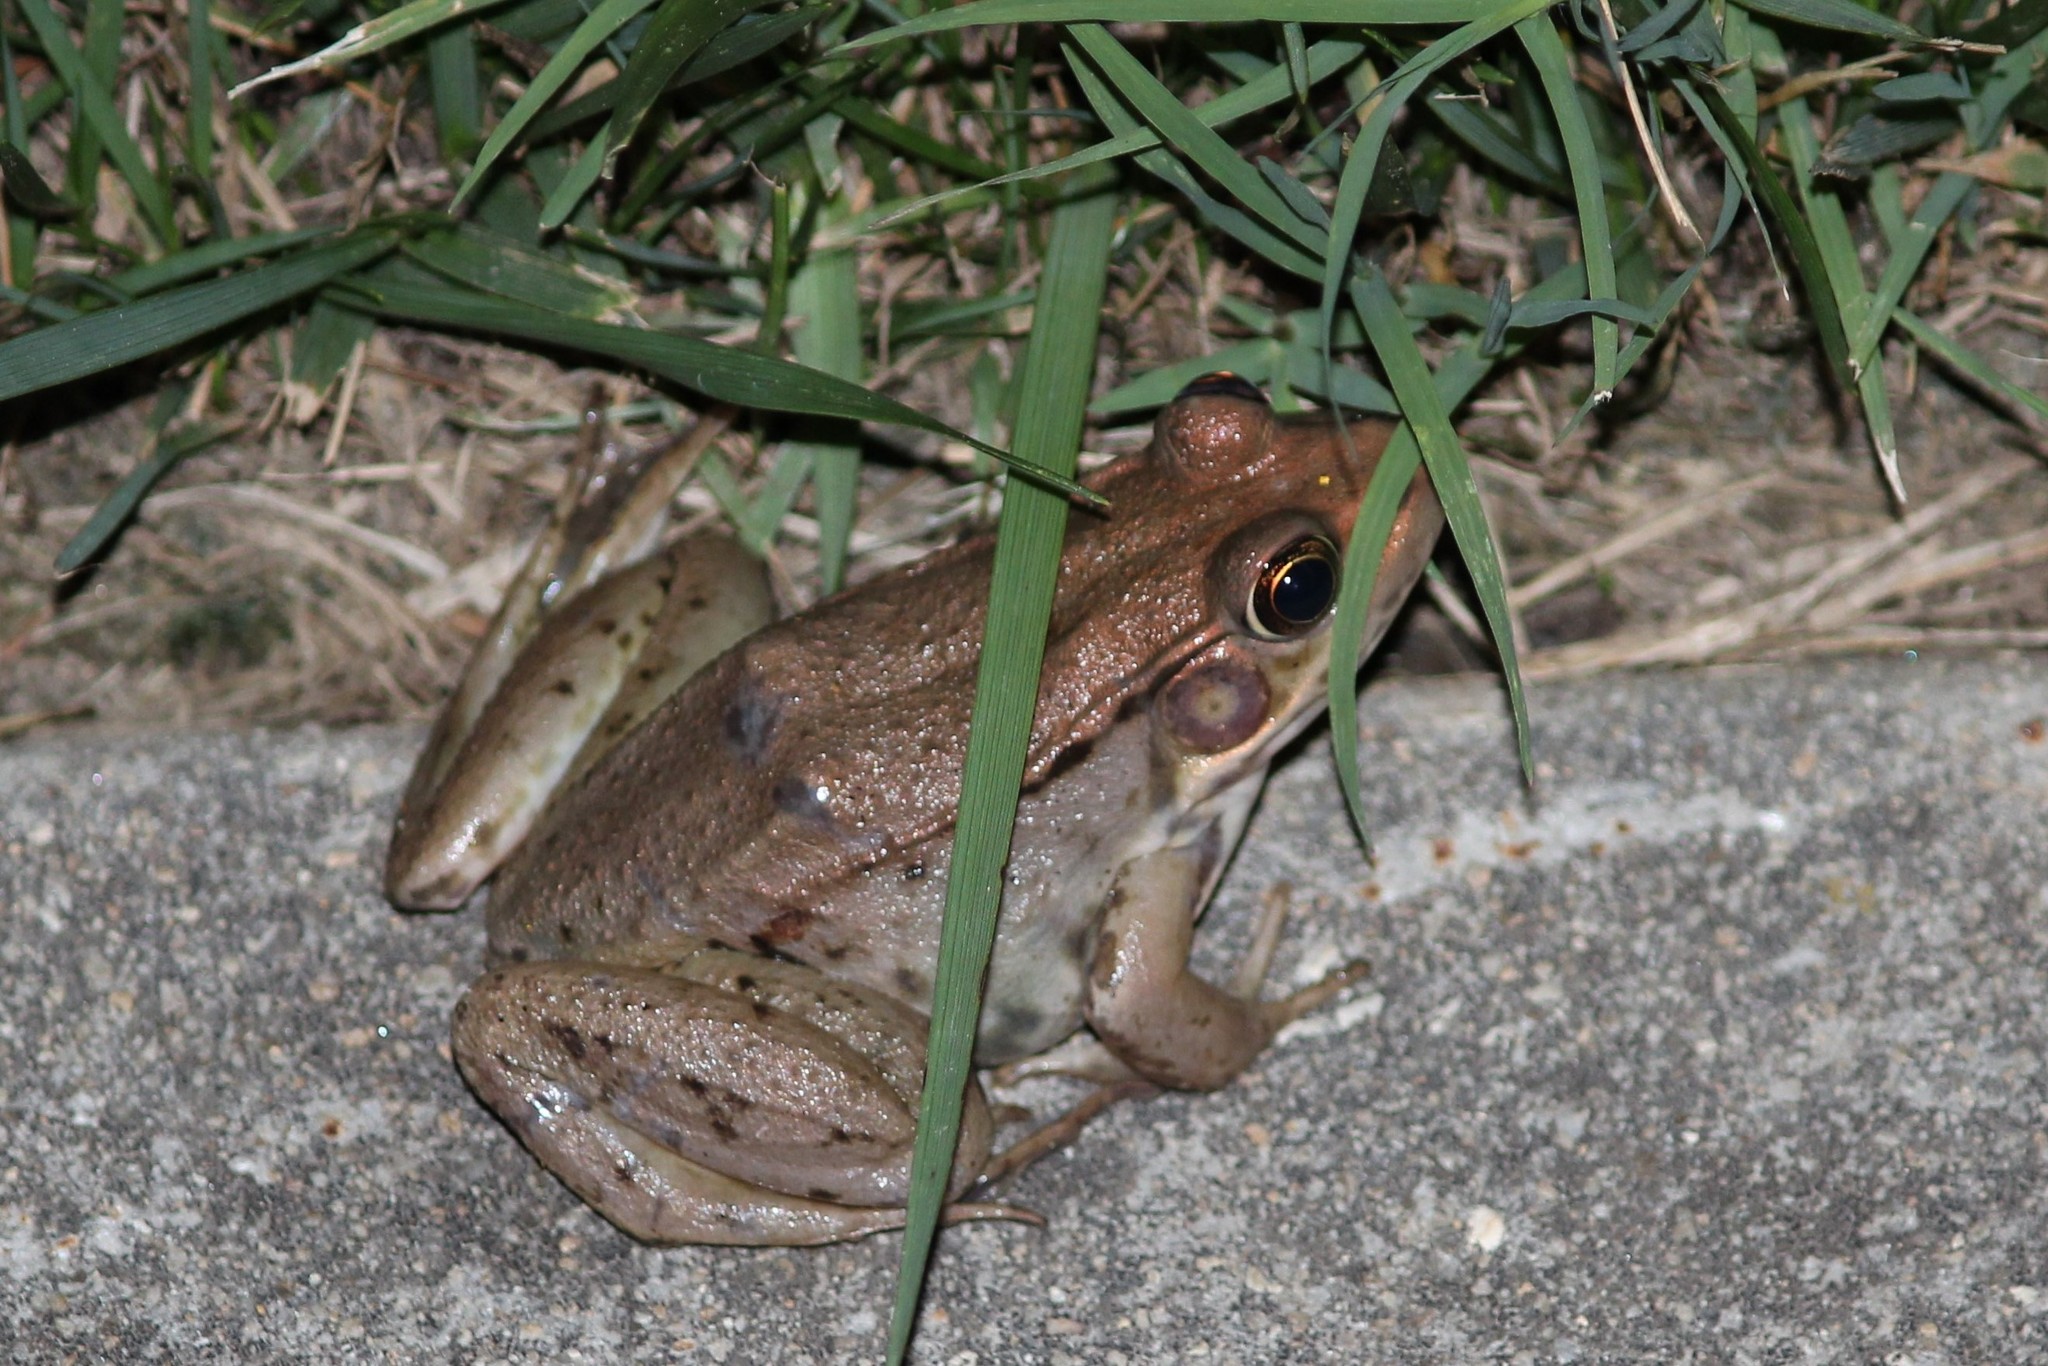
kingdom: Animalia
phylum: Chordata
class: Amphibia
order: Anura
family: Ranidae
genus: Lithobates
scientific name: Lithobates clamitans
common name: Green frog
